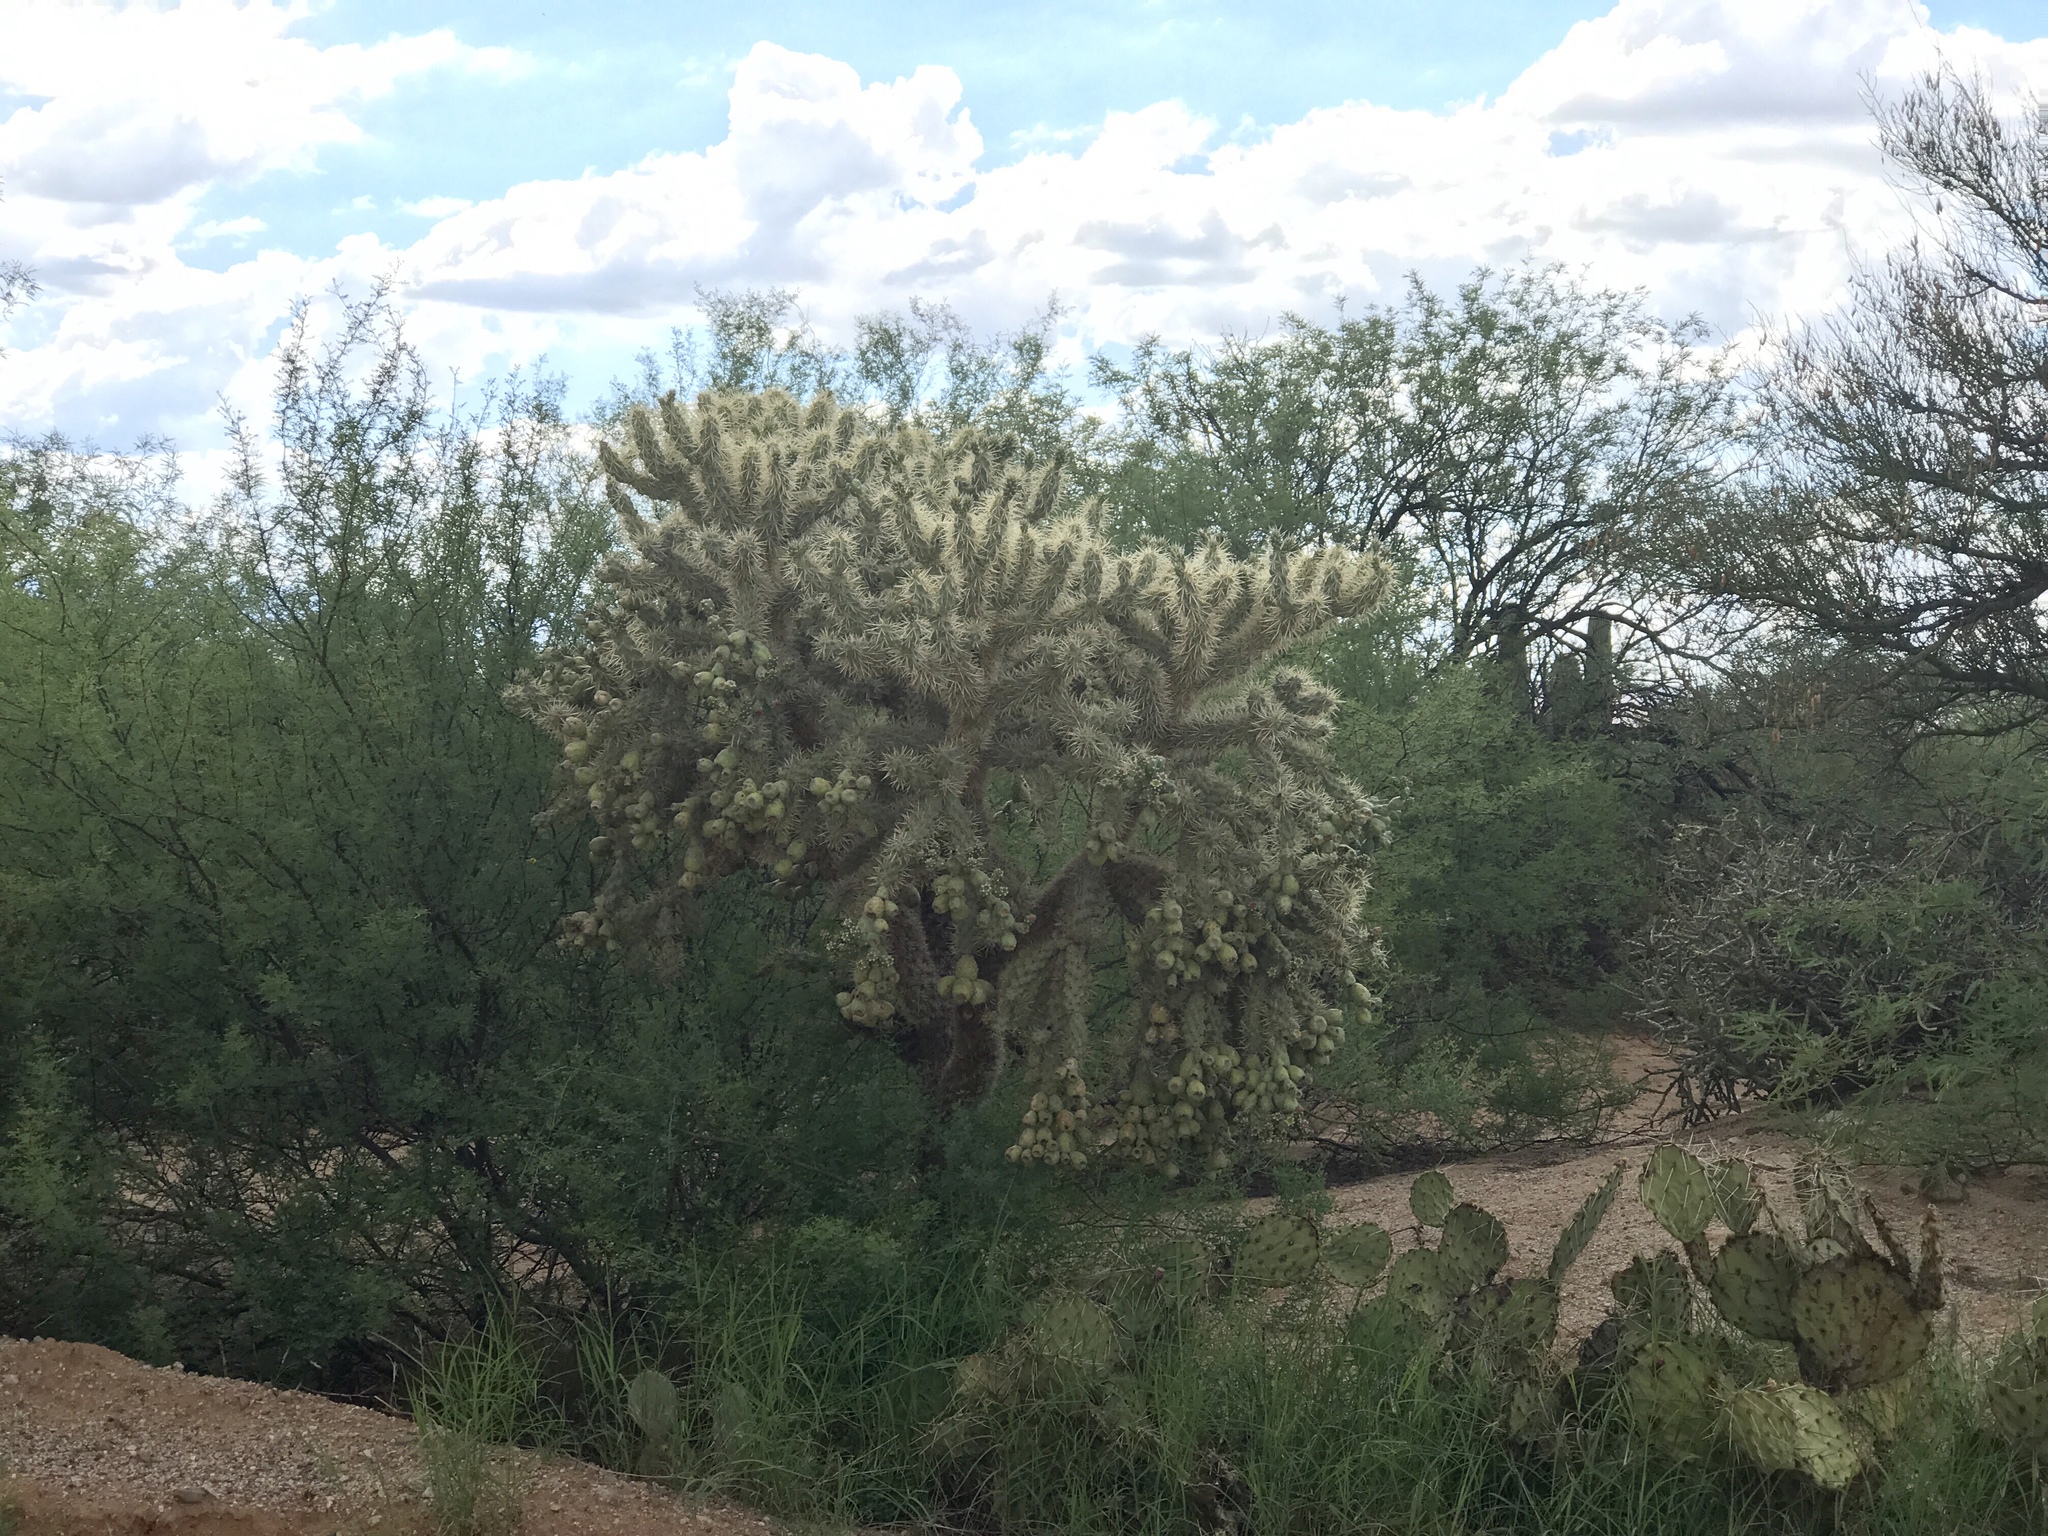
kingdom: Plantae
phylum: Tracheophyta
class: Magnoliopsida
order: Caryophyllales
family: Cactaceae
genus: Cylindropuntia
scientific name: Cylindropuntia fulgida
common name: Jumping cholla
